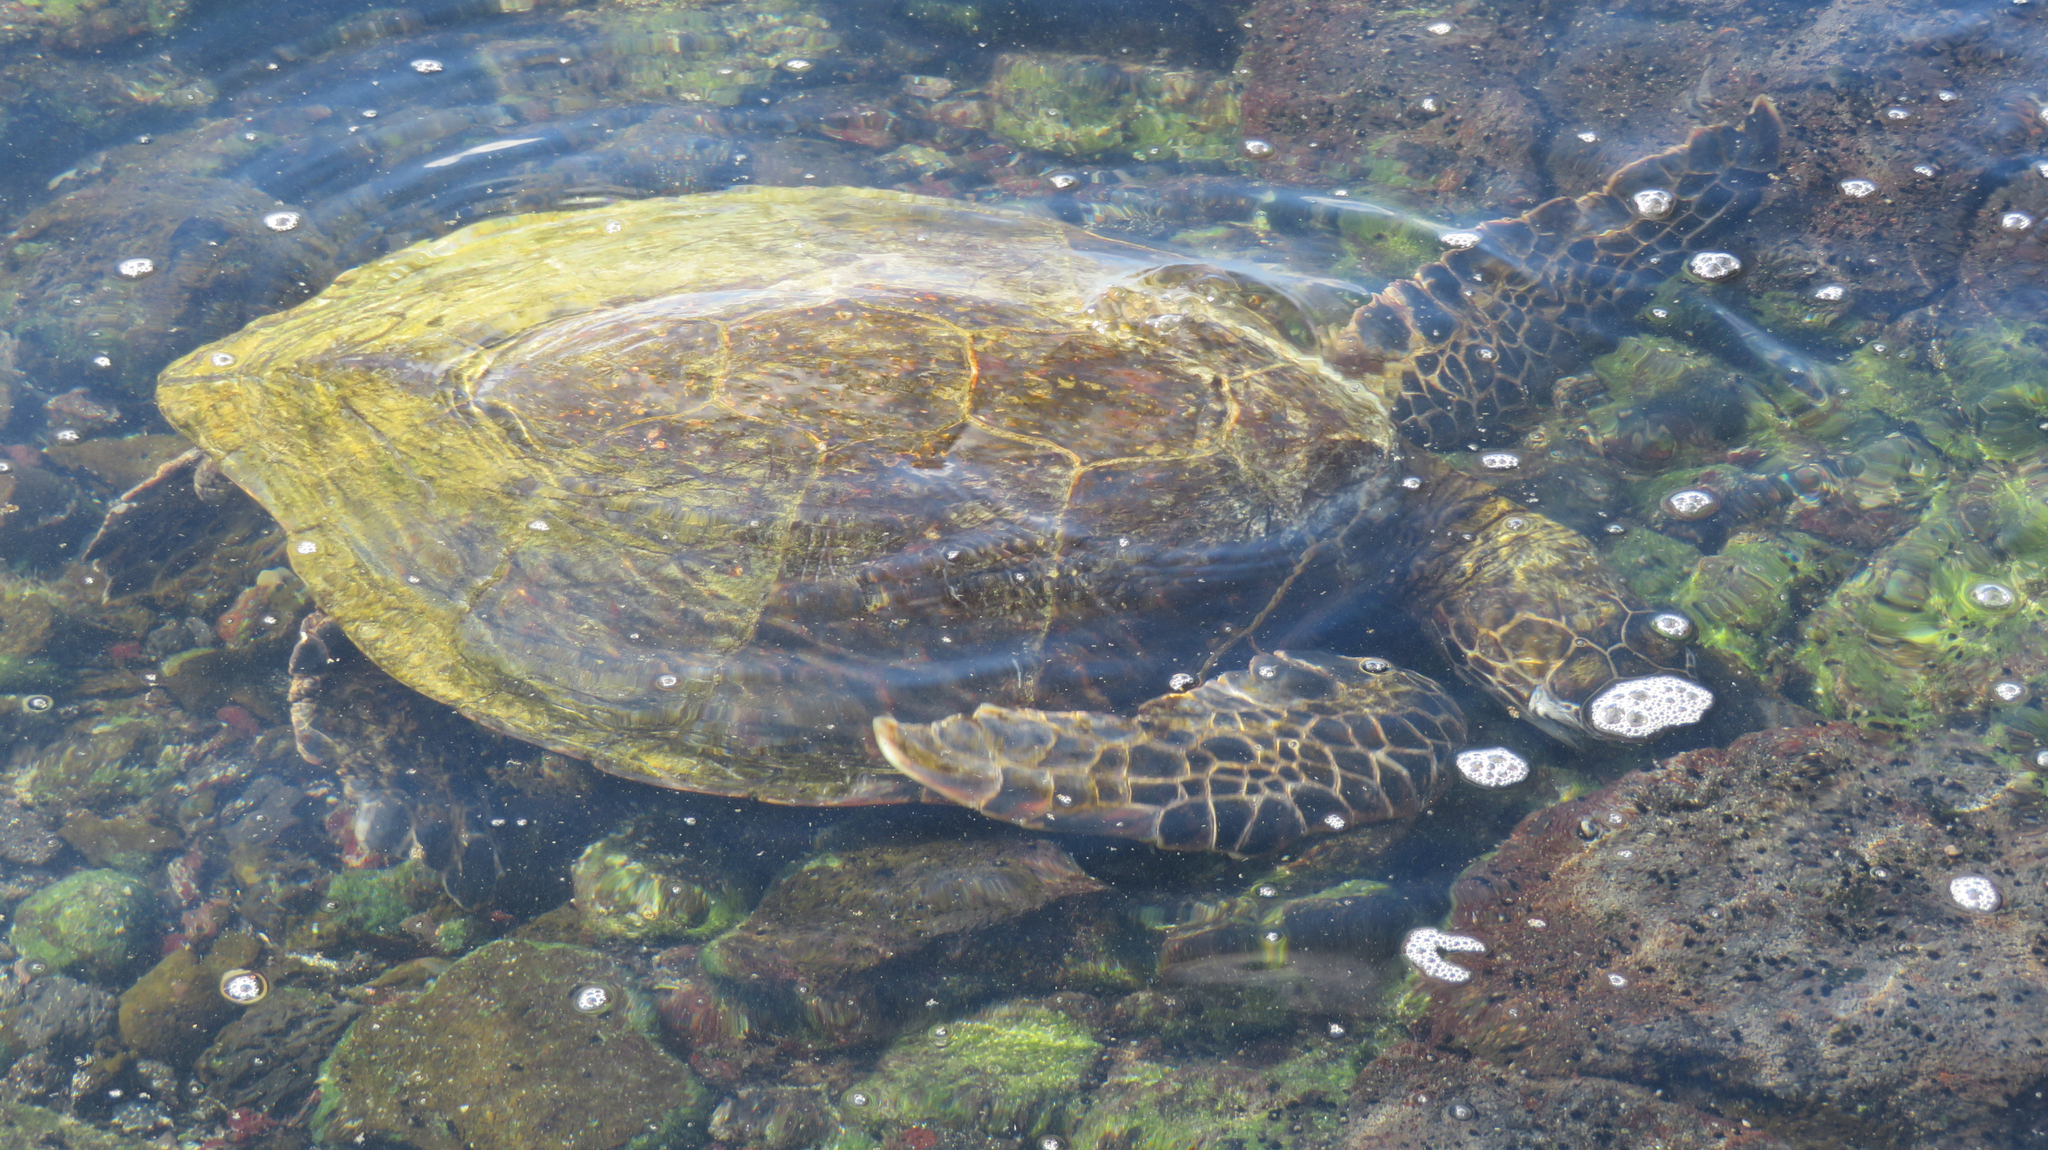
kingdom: Animalia
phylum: Chordata
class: Testudines
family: Cheloniidae
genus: Chelonia
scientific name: Chelonia mydas
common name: Green turtle
